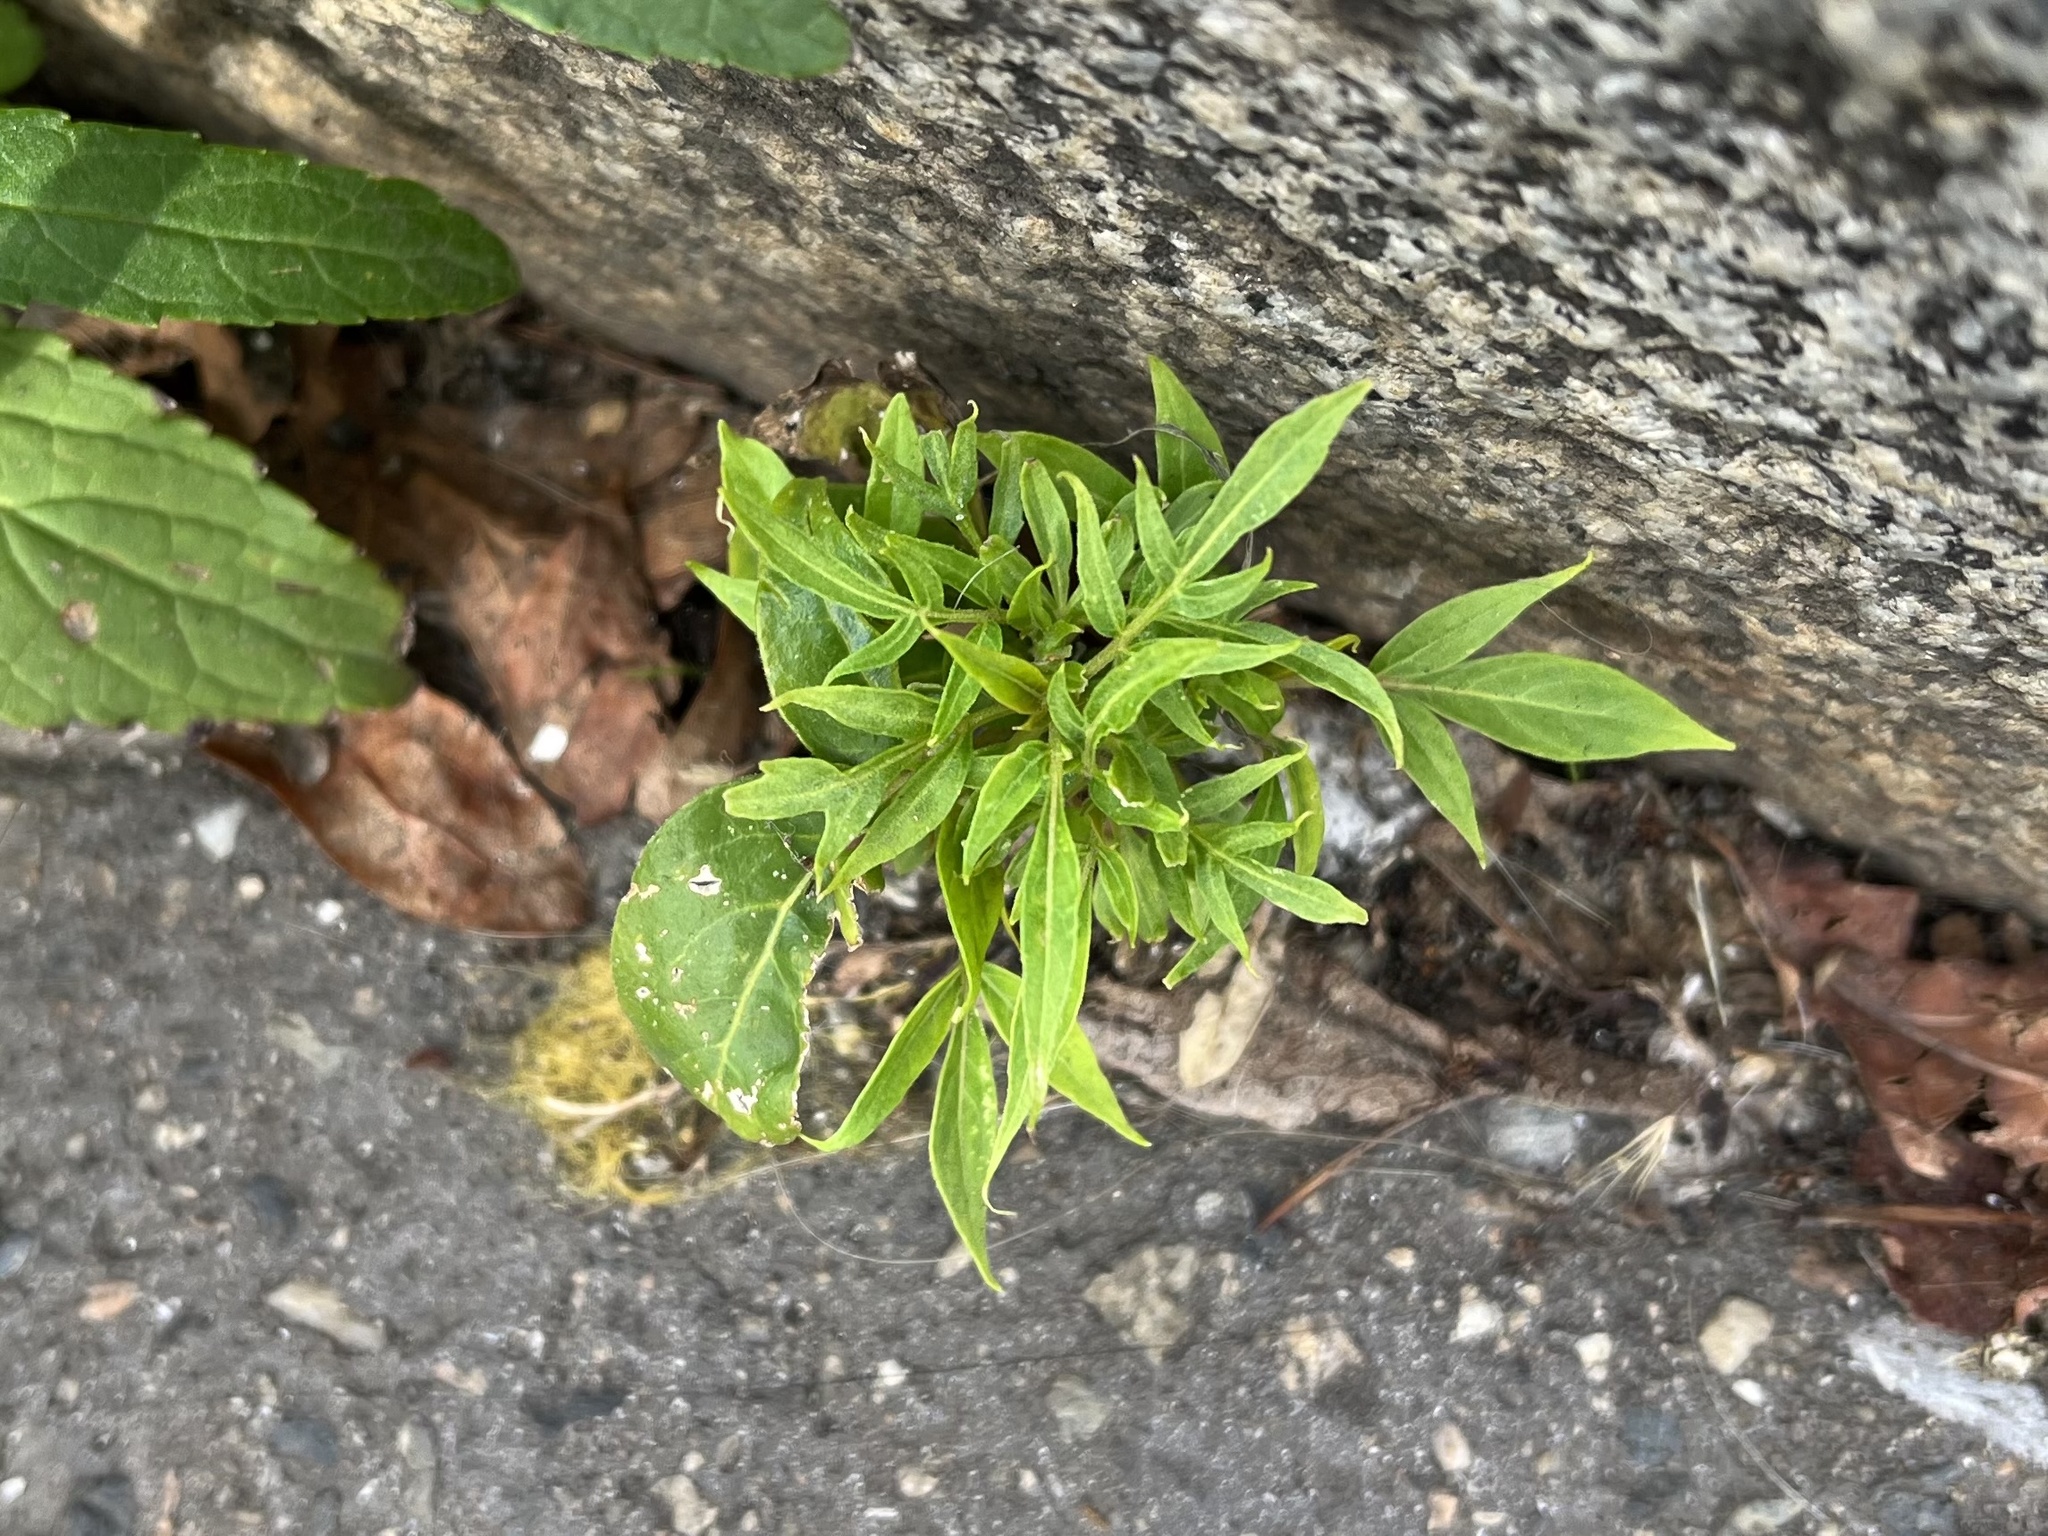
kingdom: Plantae
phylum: Tracheophyta
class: Magnoliopsida
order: Sapindales
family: Simaroubaceae
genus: Ailanthus
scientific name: Ailanthus altissima
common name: Tree-of-heaven
